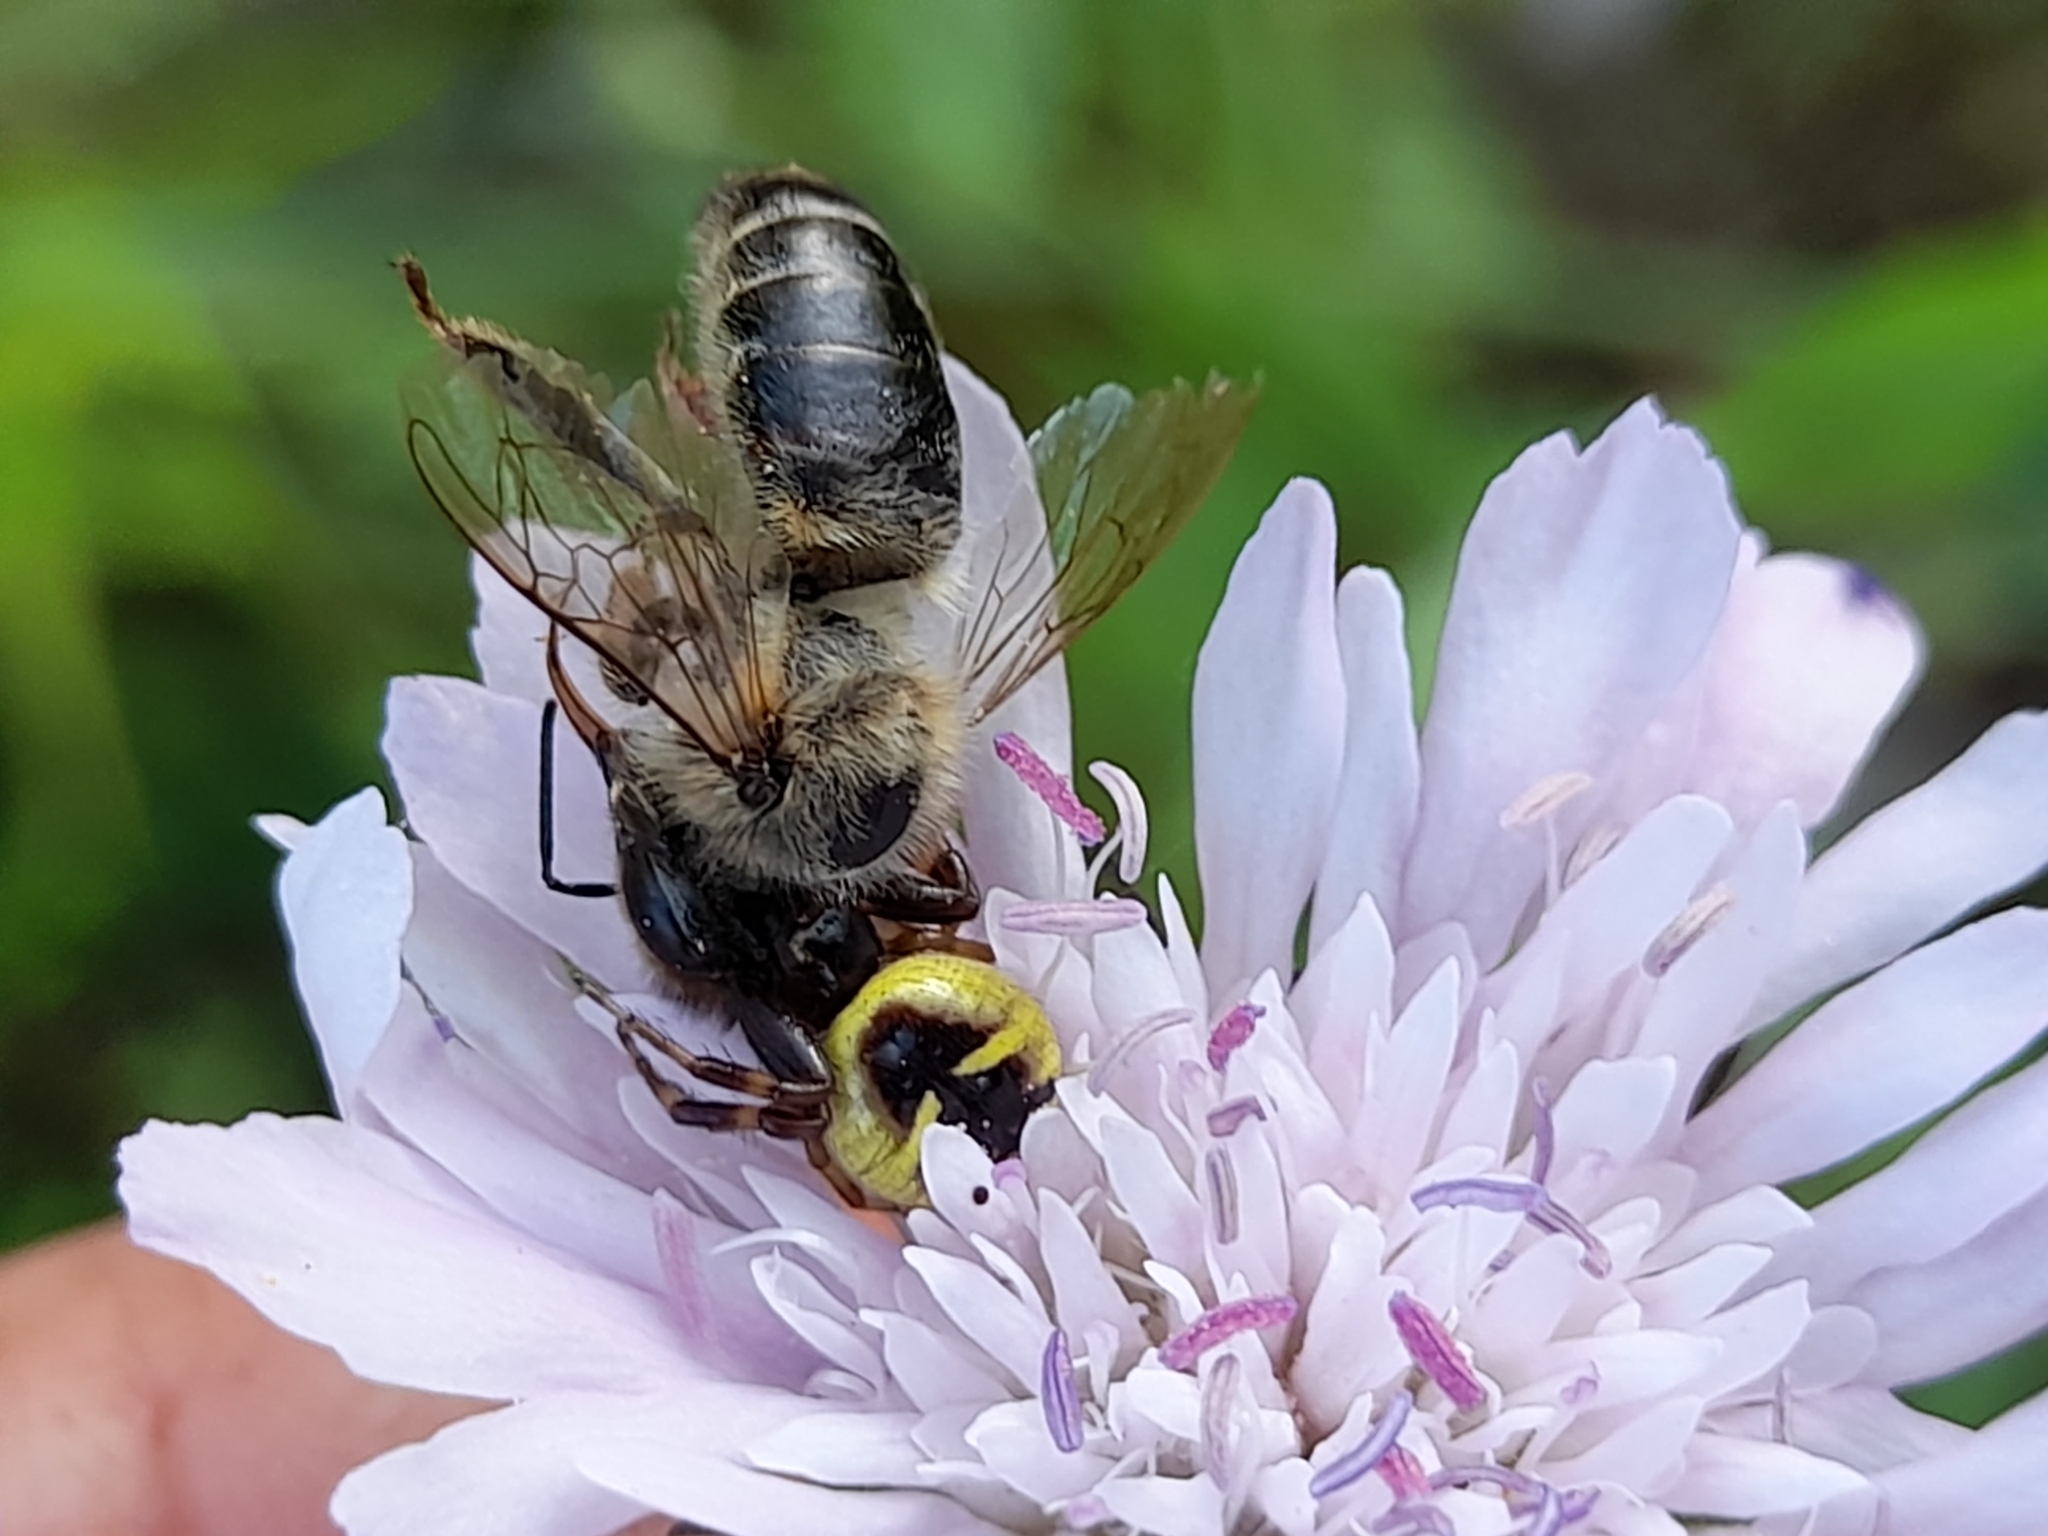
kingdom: Animalia
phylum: Arthropoda
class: Arachnida
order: Araneae
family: Thomisidae
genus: Synema
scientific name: Synema globosum
